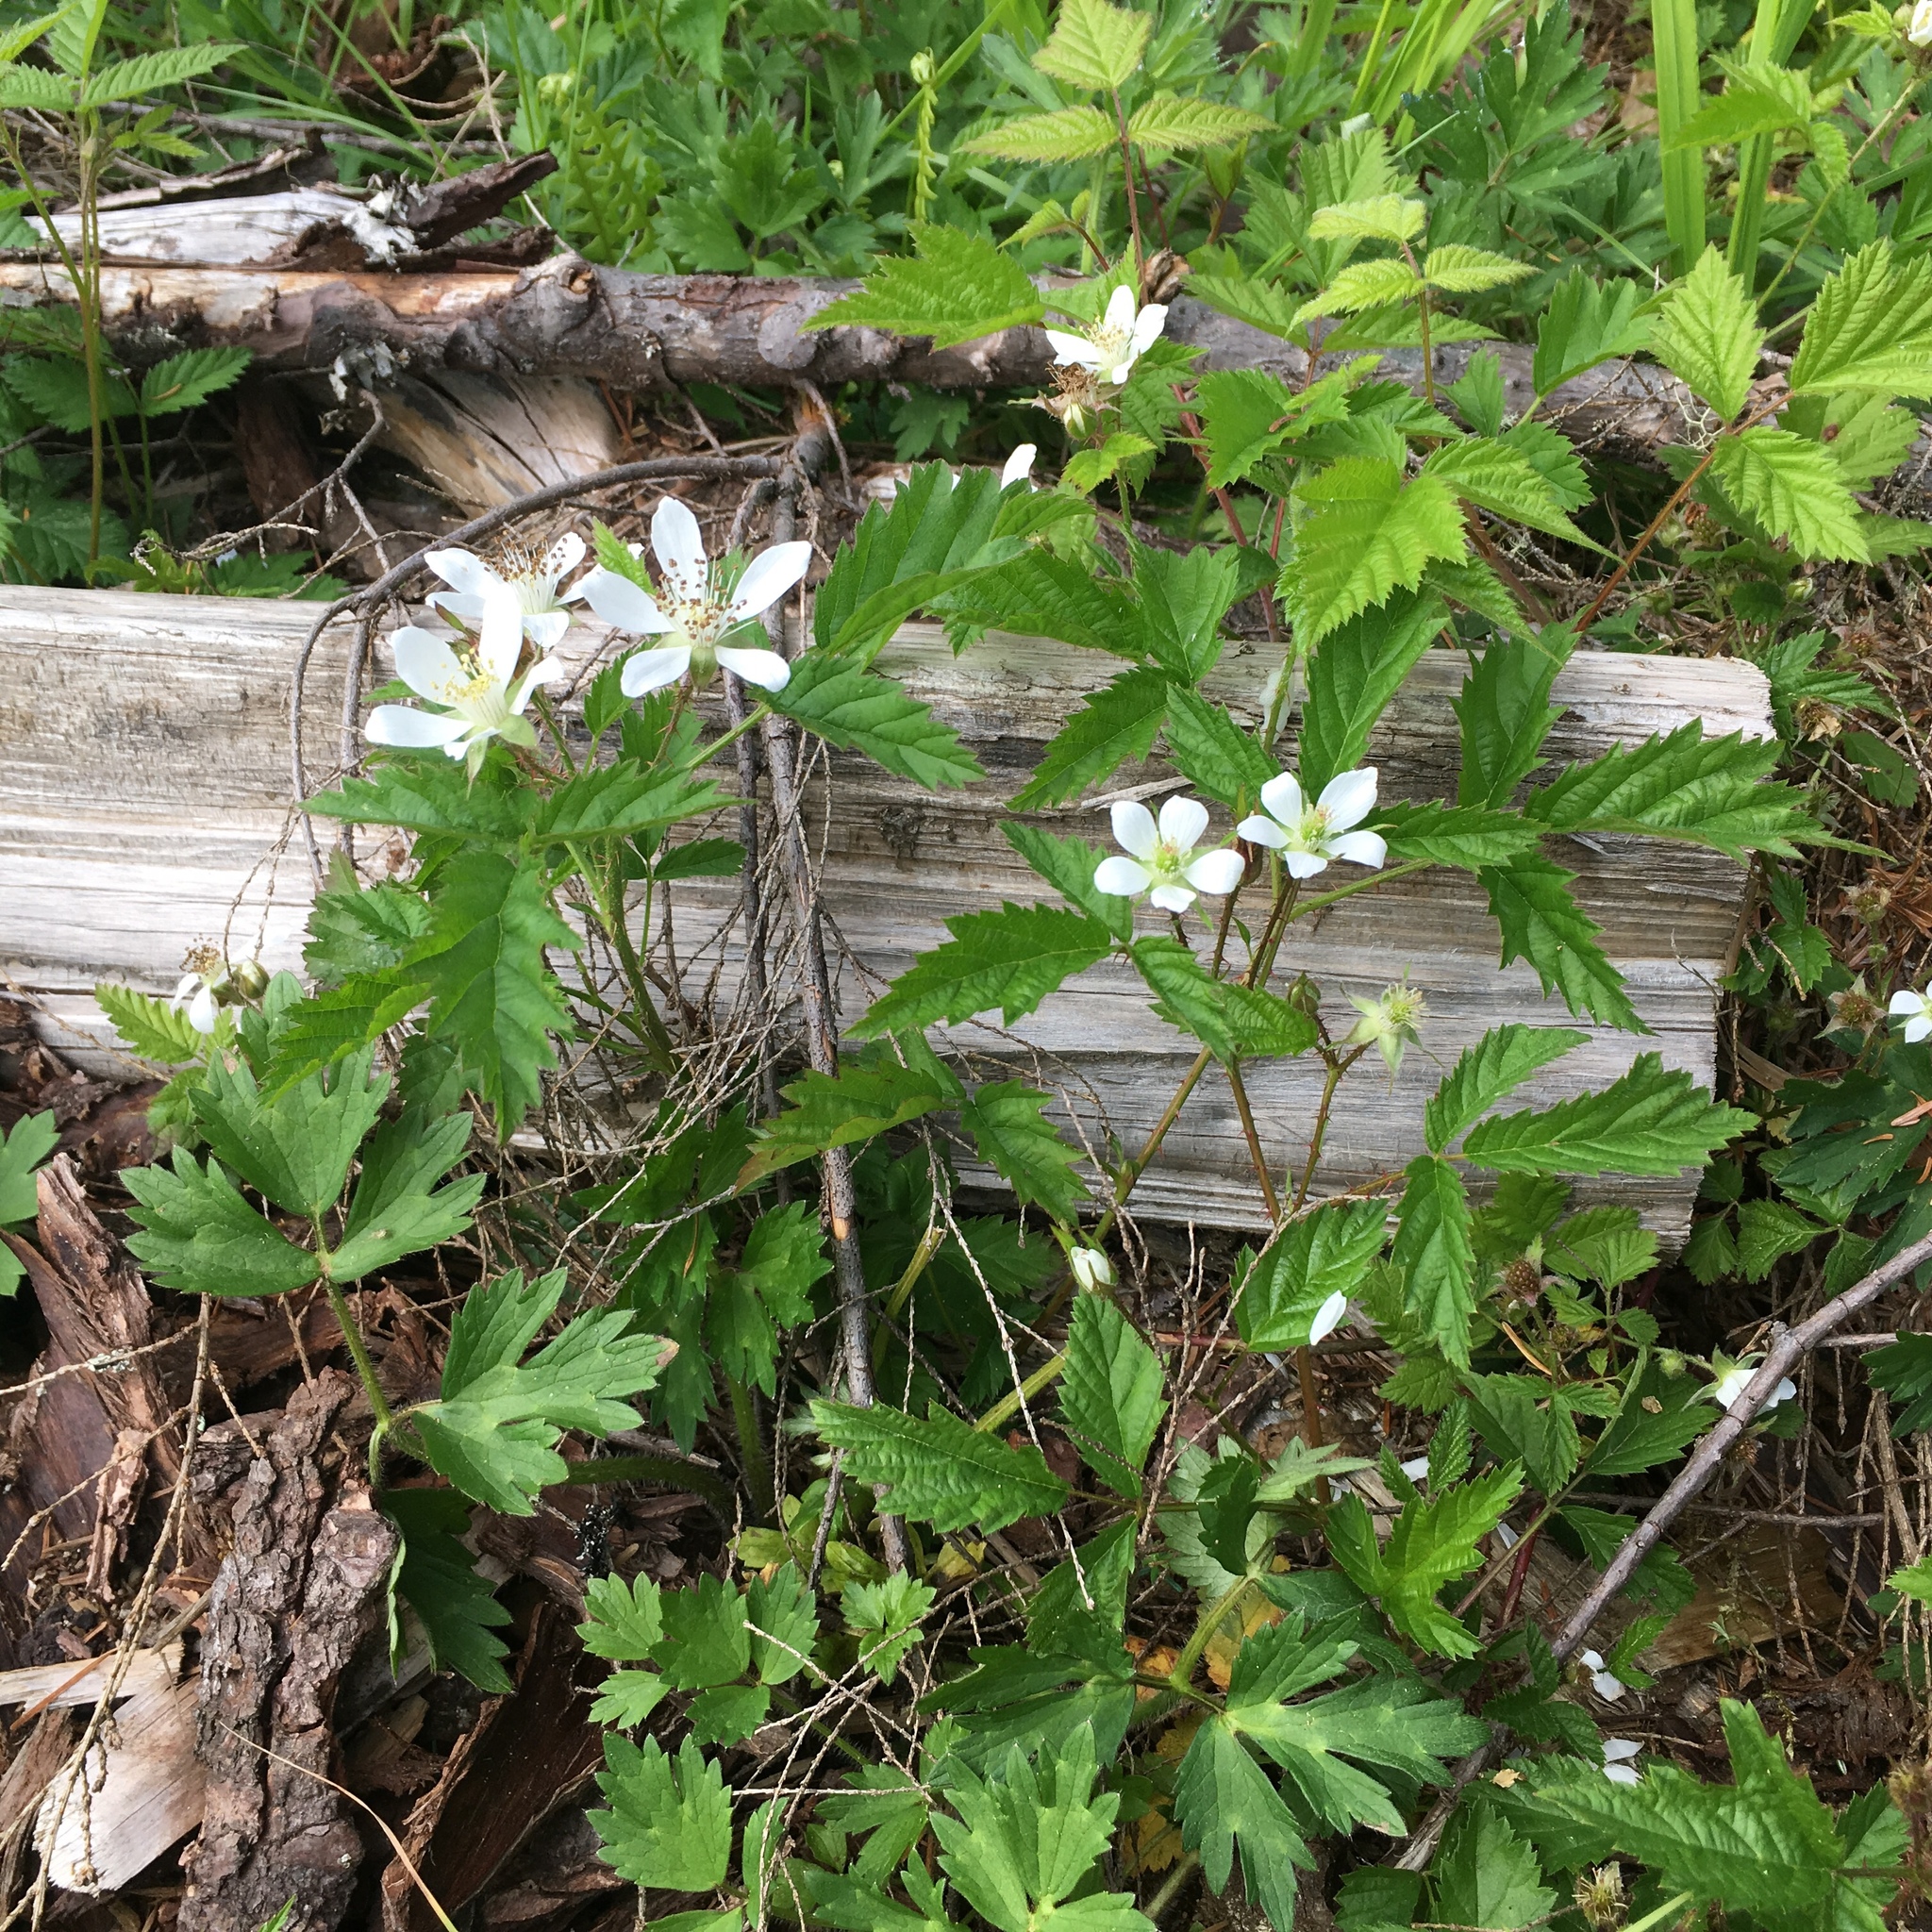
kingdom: Plantae
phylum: Tracheophyta
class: Magnoliopsida
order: Rosales
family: Rosaceae
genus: Rubus
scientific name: Rubus ursinus
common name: Pacific blackberry
